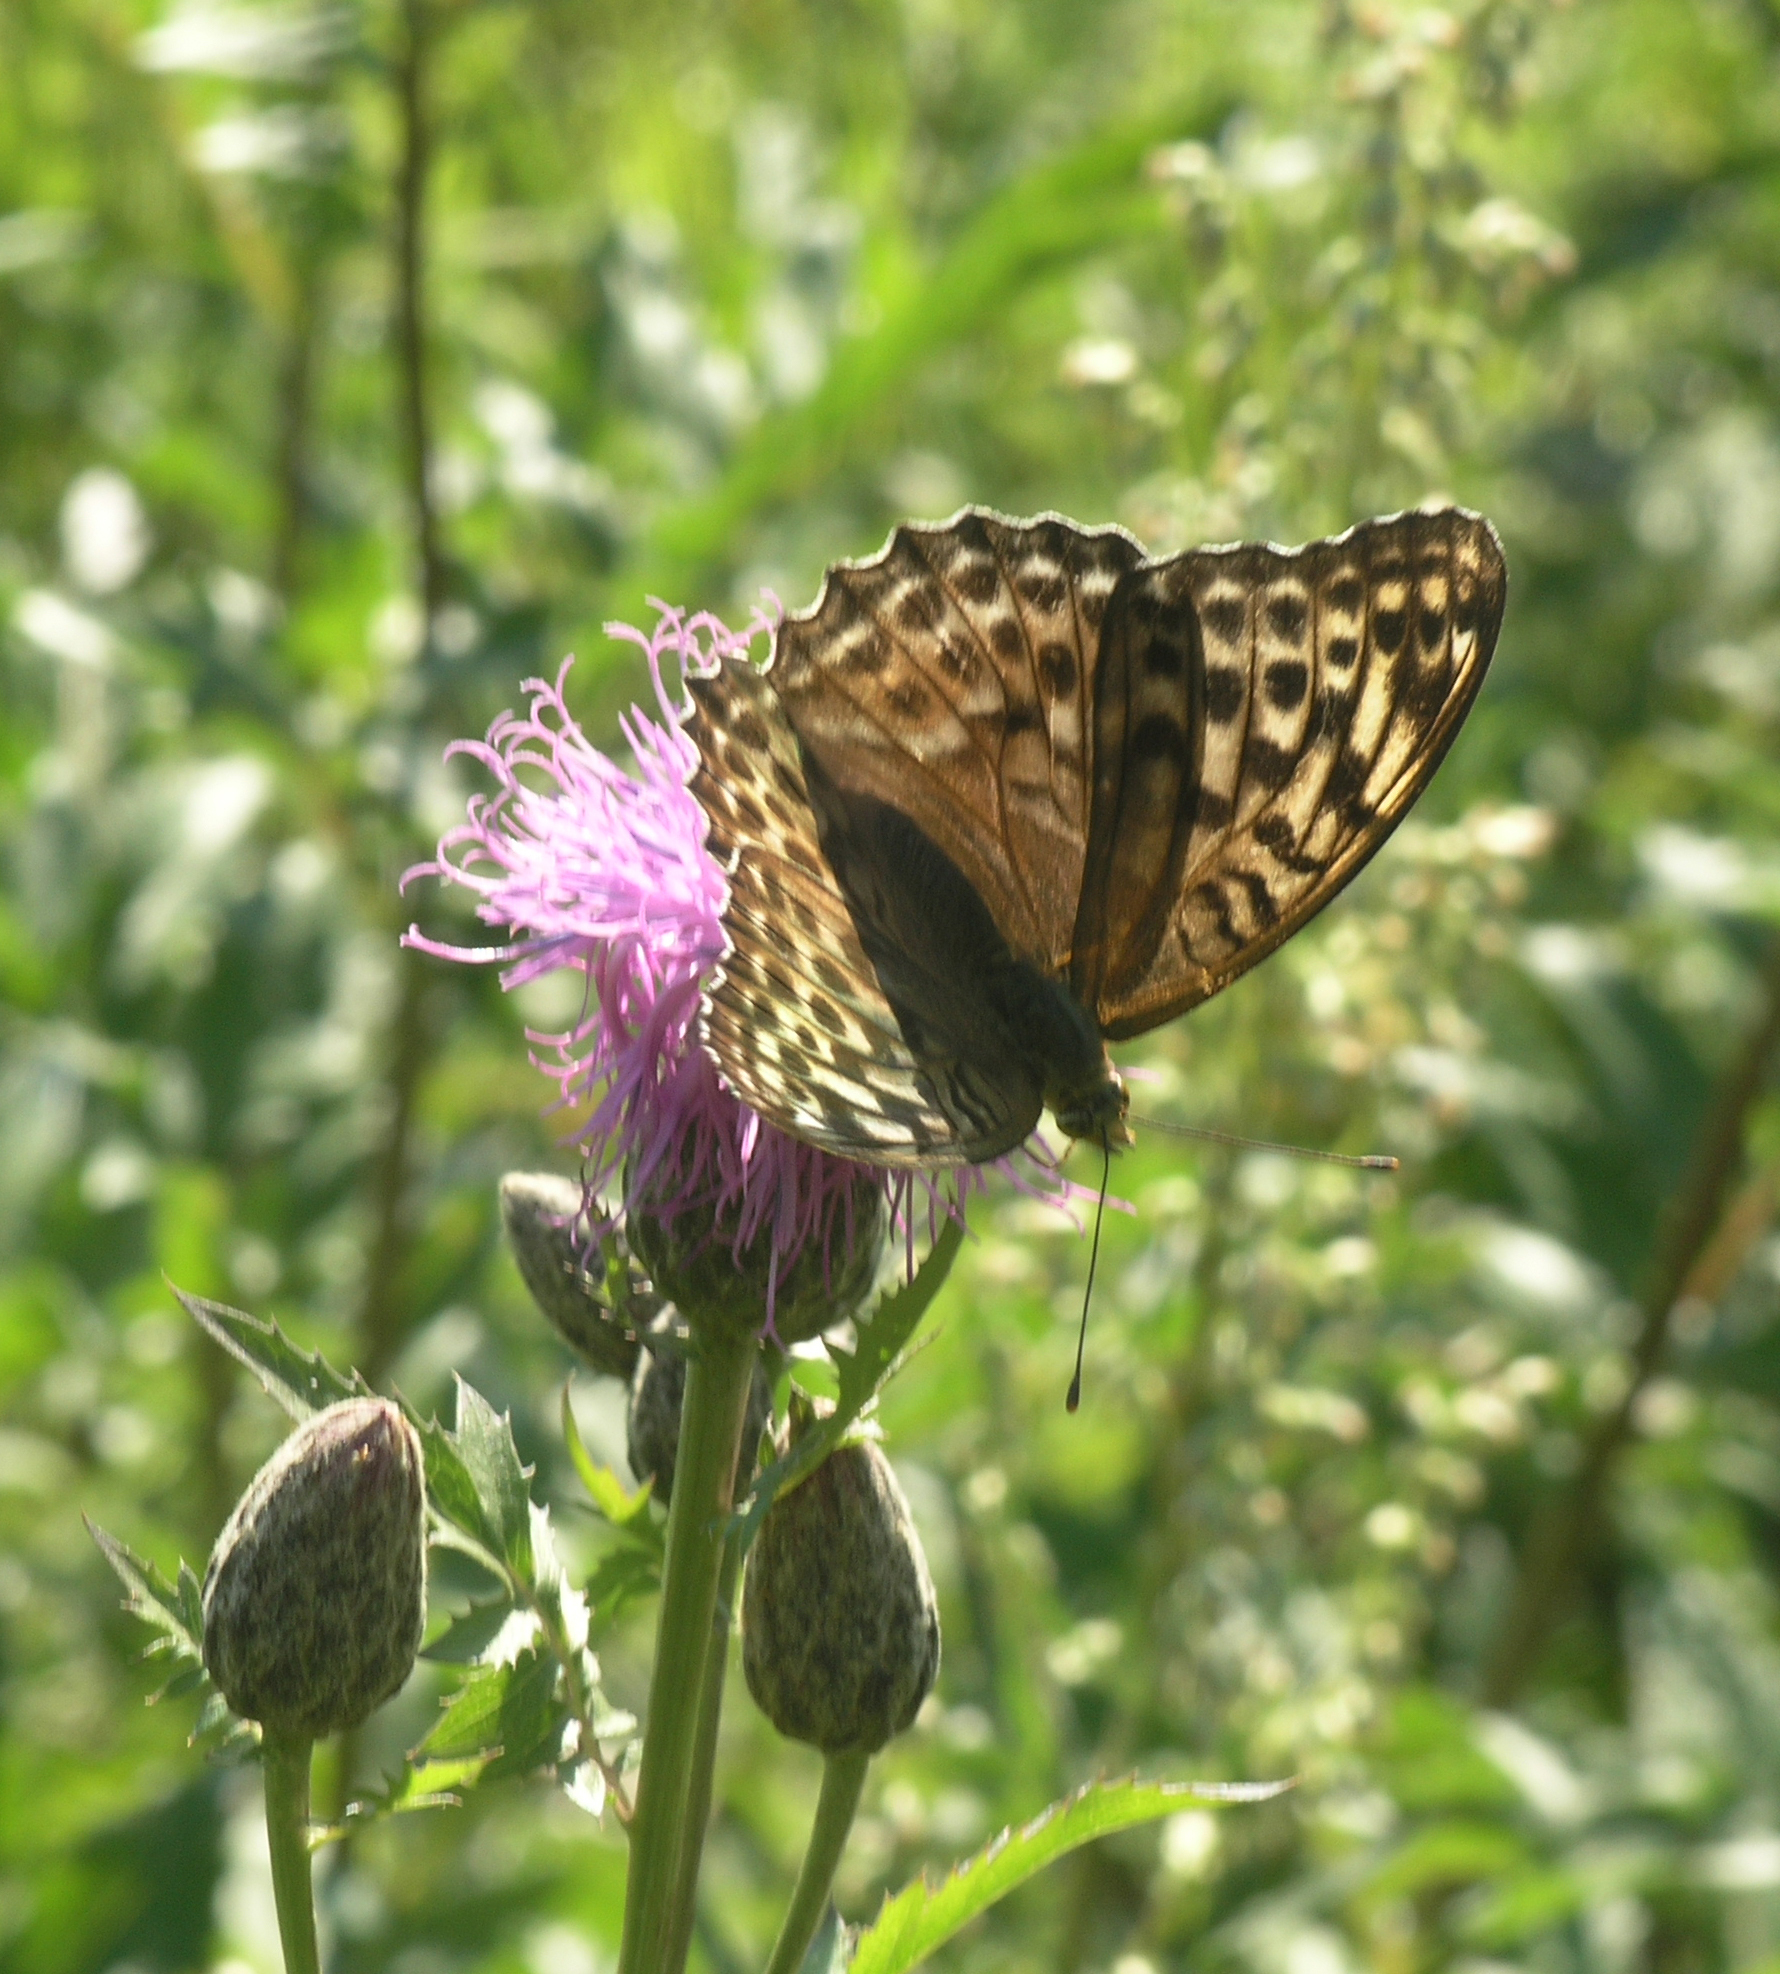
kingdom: Animalia
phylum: Arthropoda
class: Insecta
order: Lepidoptera
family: Nymphalidae
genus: Argynnis
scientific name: Argynnis paphia
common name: Silver-washed fritillary
